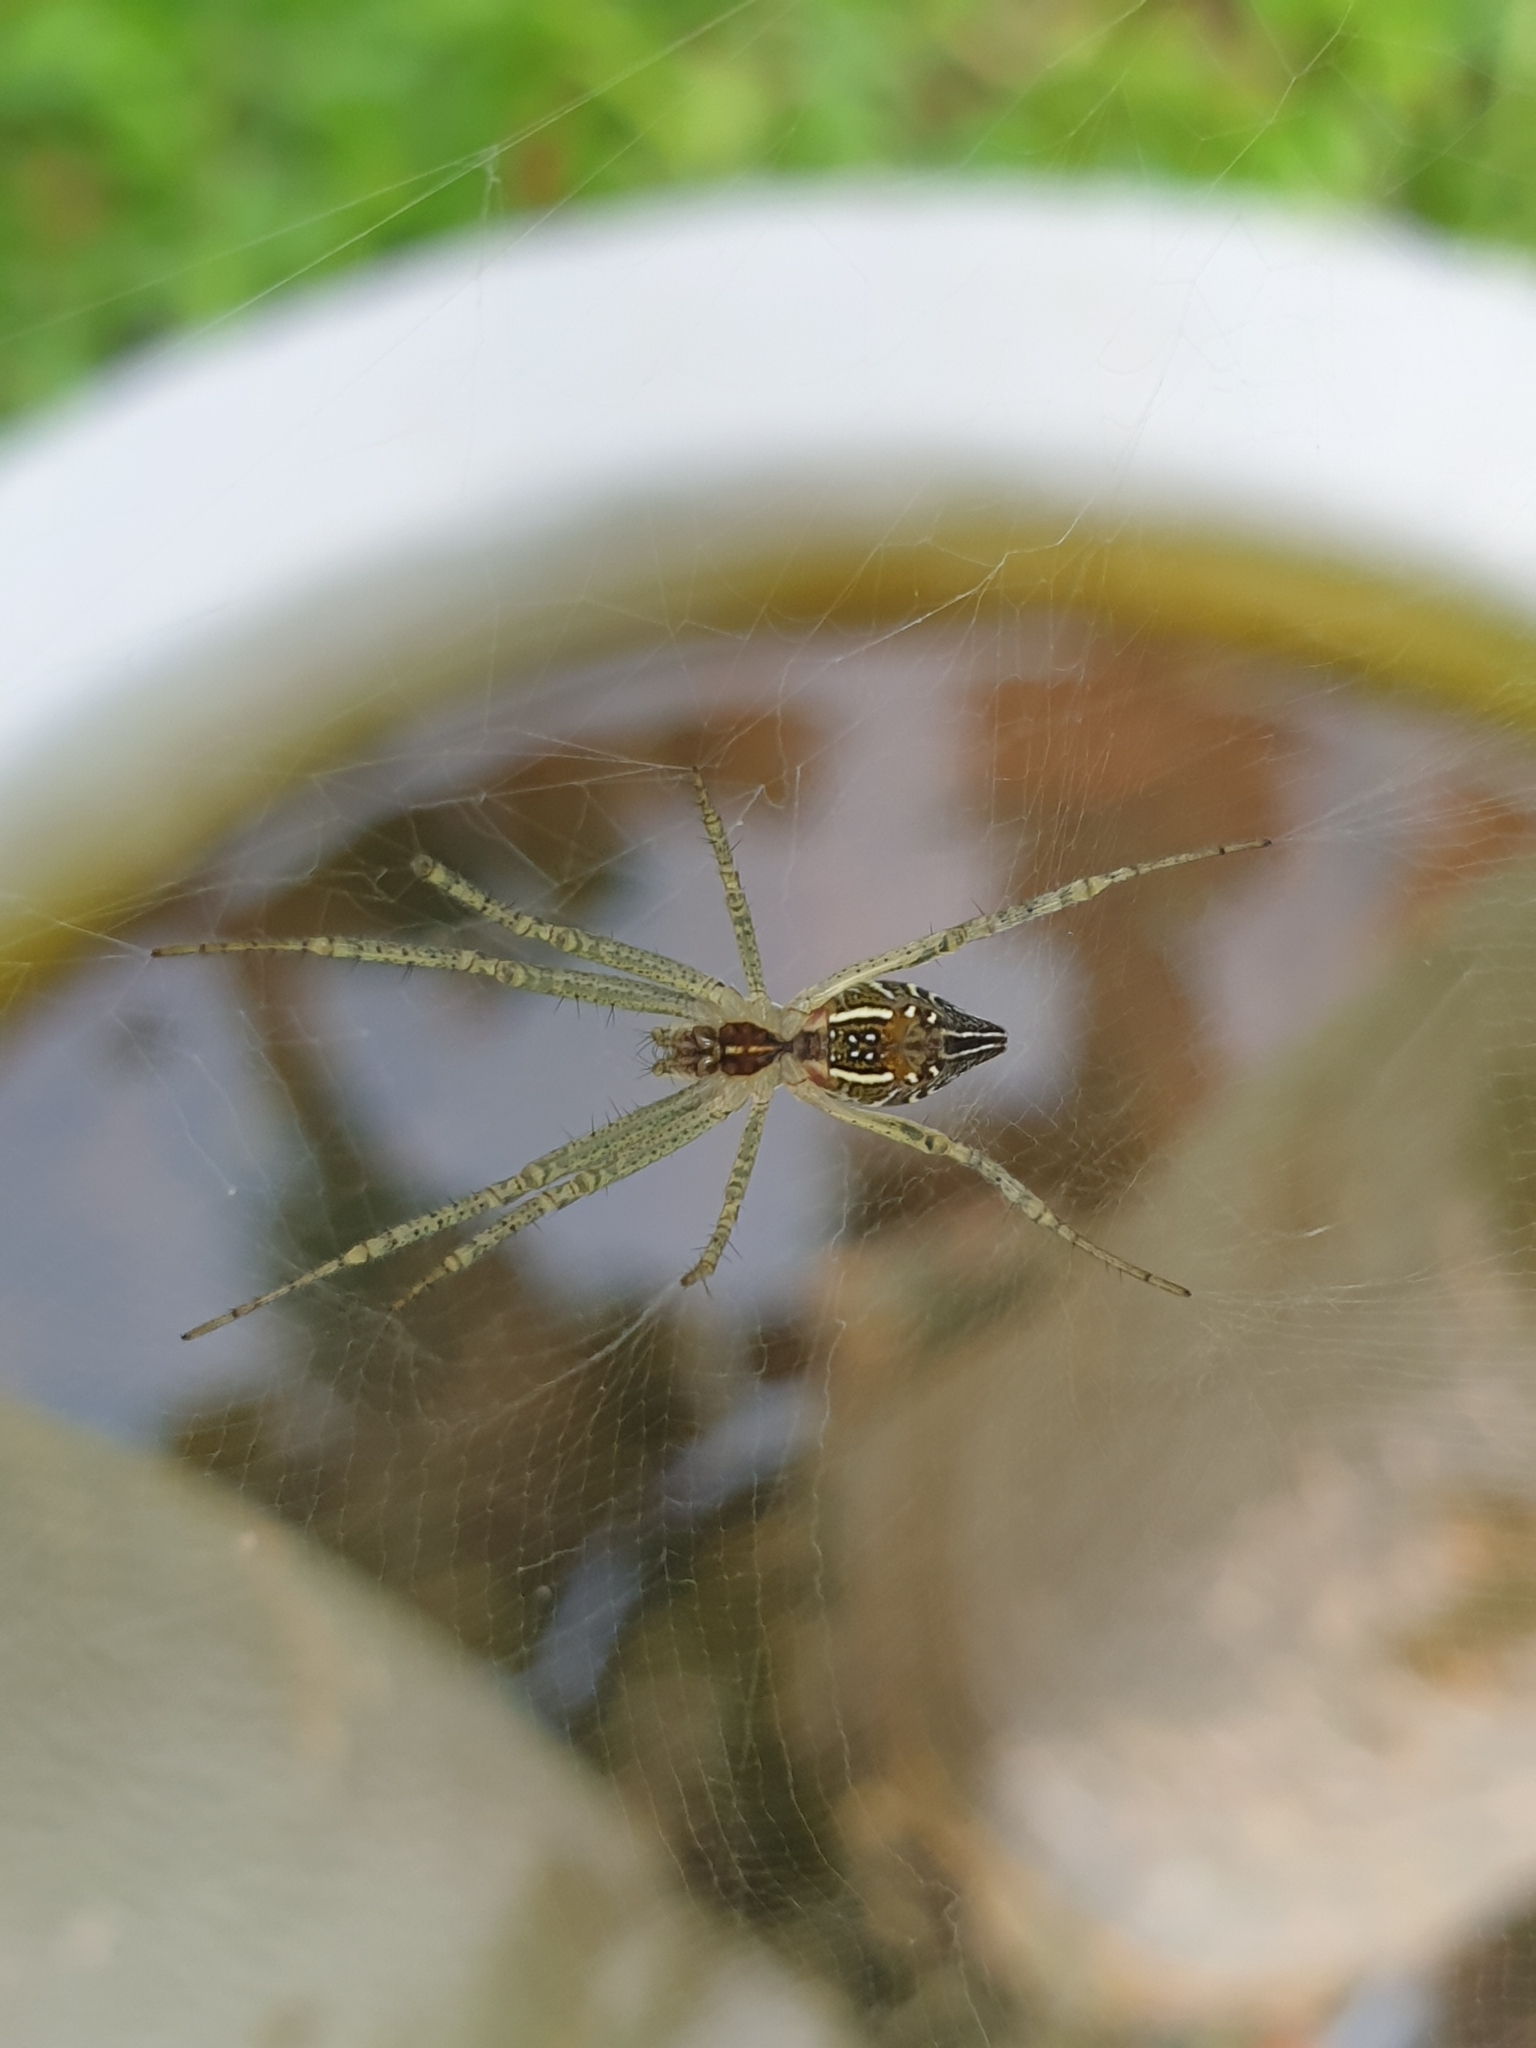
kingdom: Animalia
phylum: Arthropoda
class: Arachnida
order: Araneae
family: Araneidae
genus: Cyrtophora
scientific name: Cyrtophora cicatrosa
